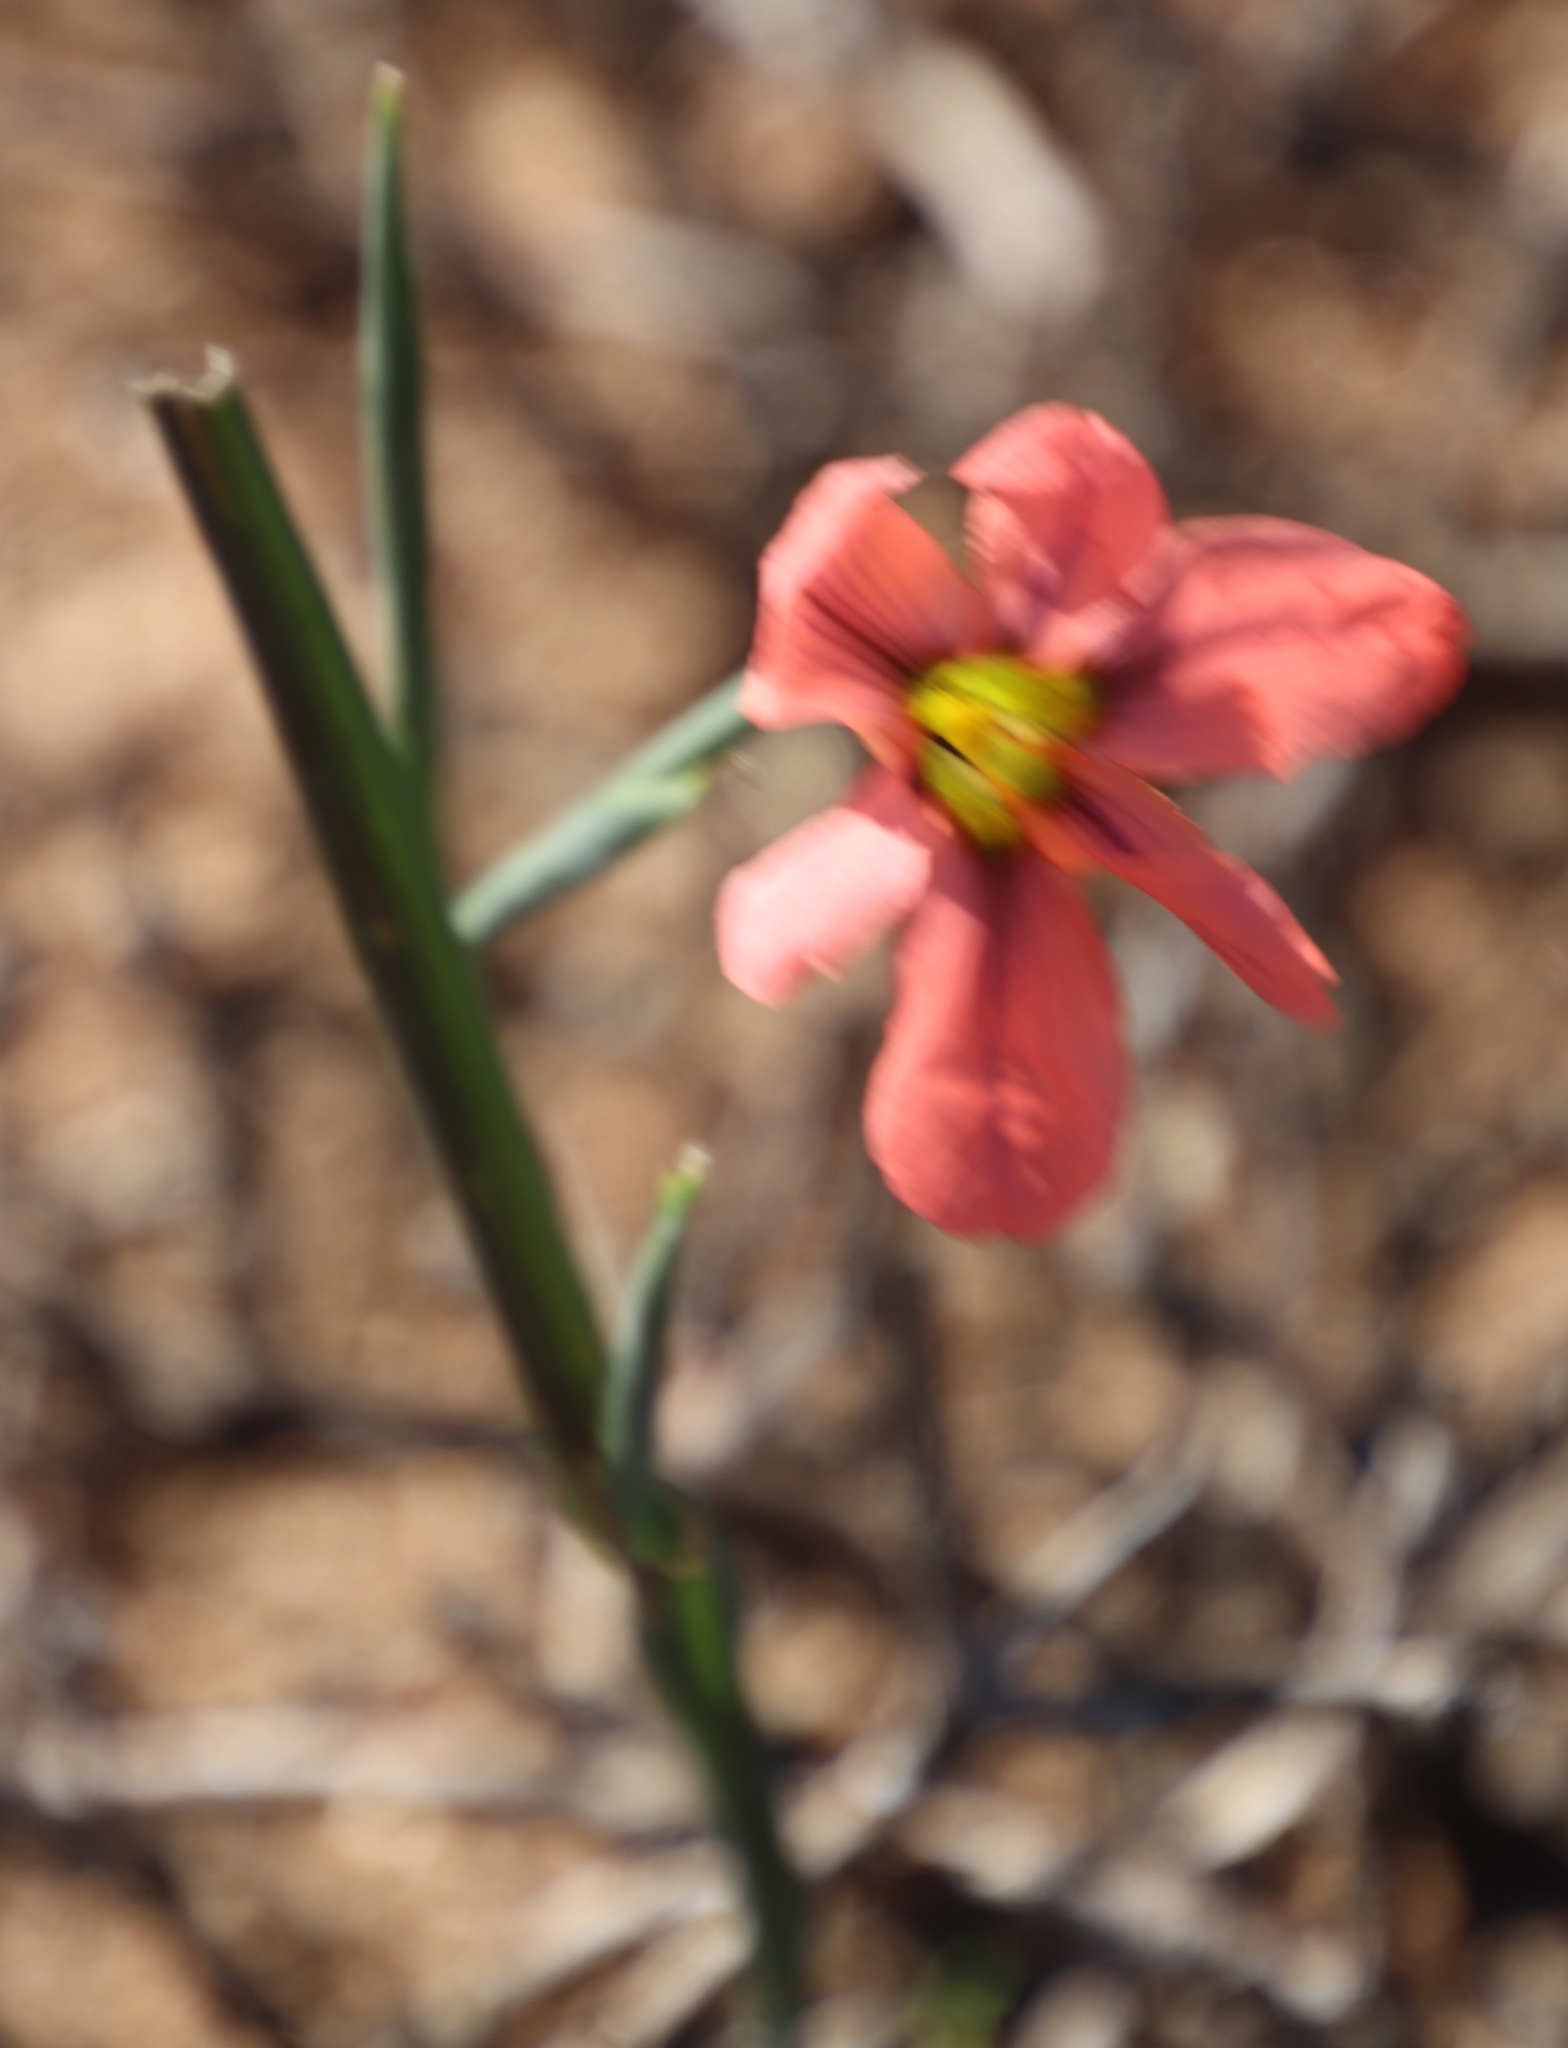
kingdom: Plantae
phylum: Tracheophyta
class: Liliopsida
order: Asparagales
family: Iridaceae
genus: Moraea
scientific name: Moraea miniata
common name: Two-leaf cape-tulip
